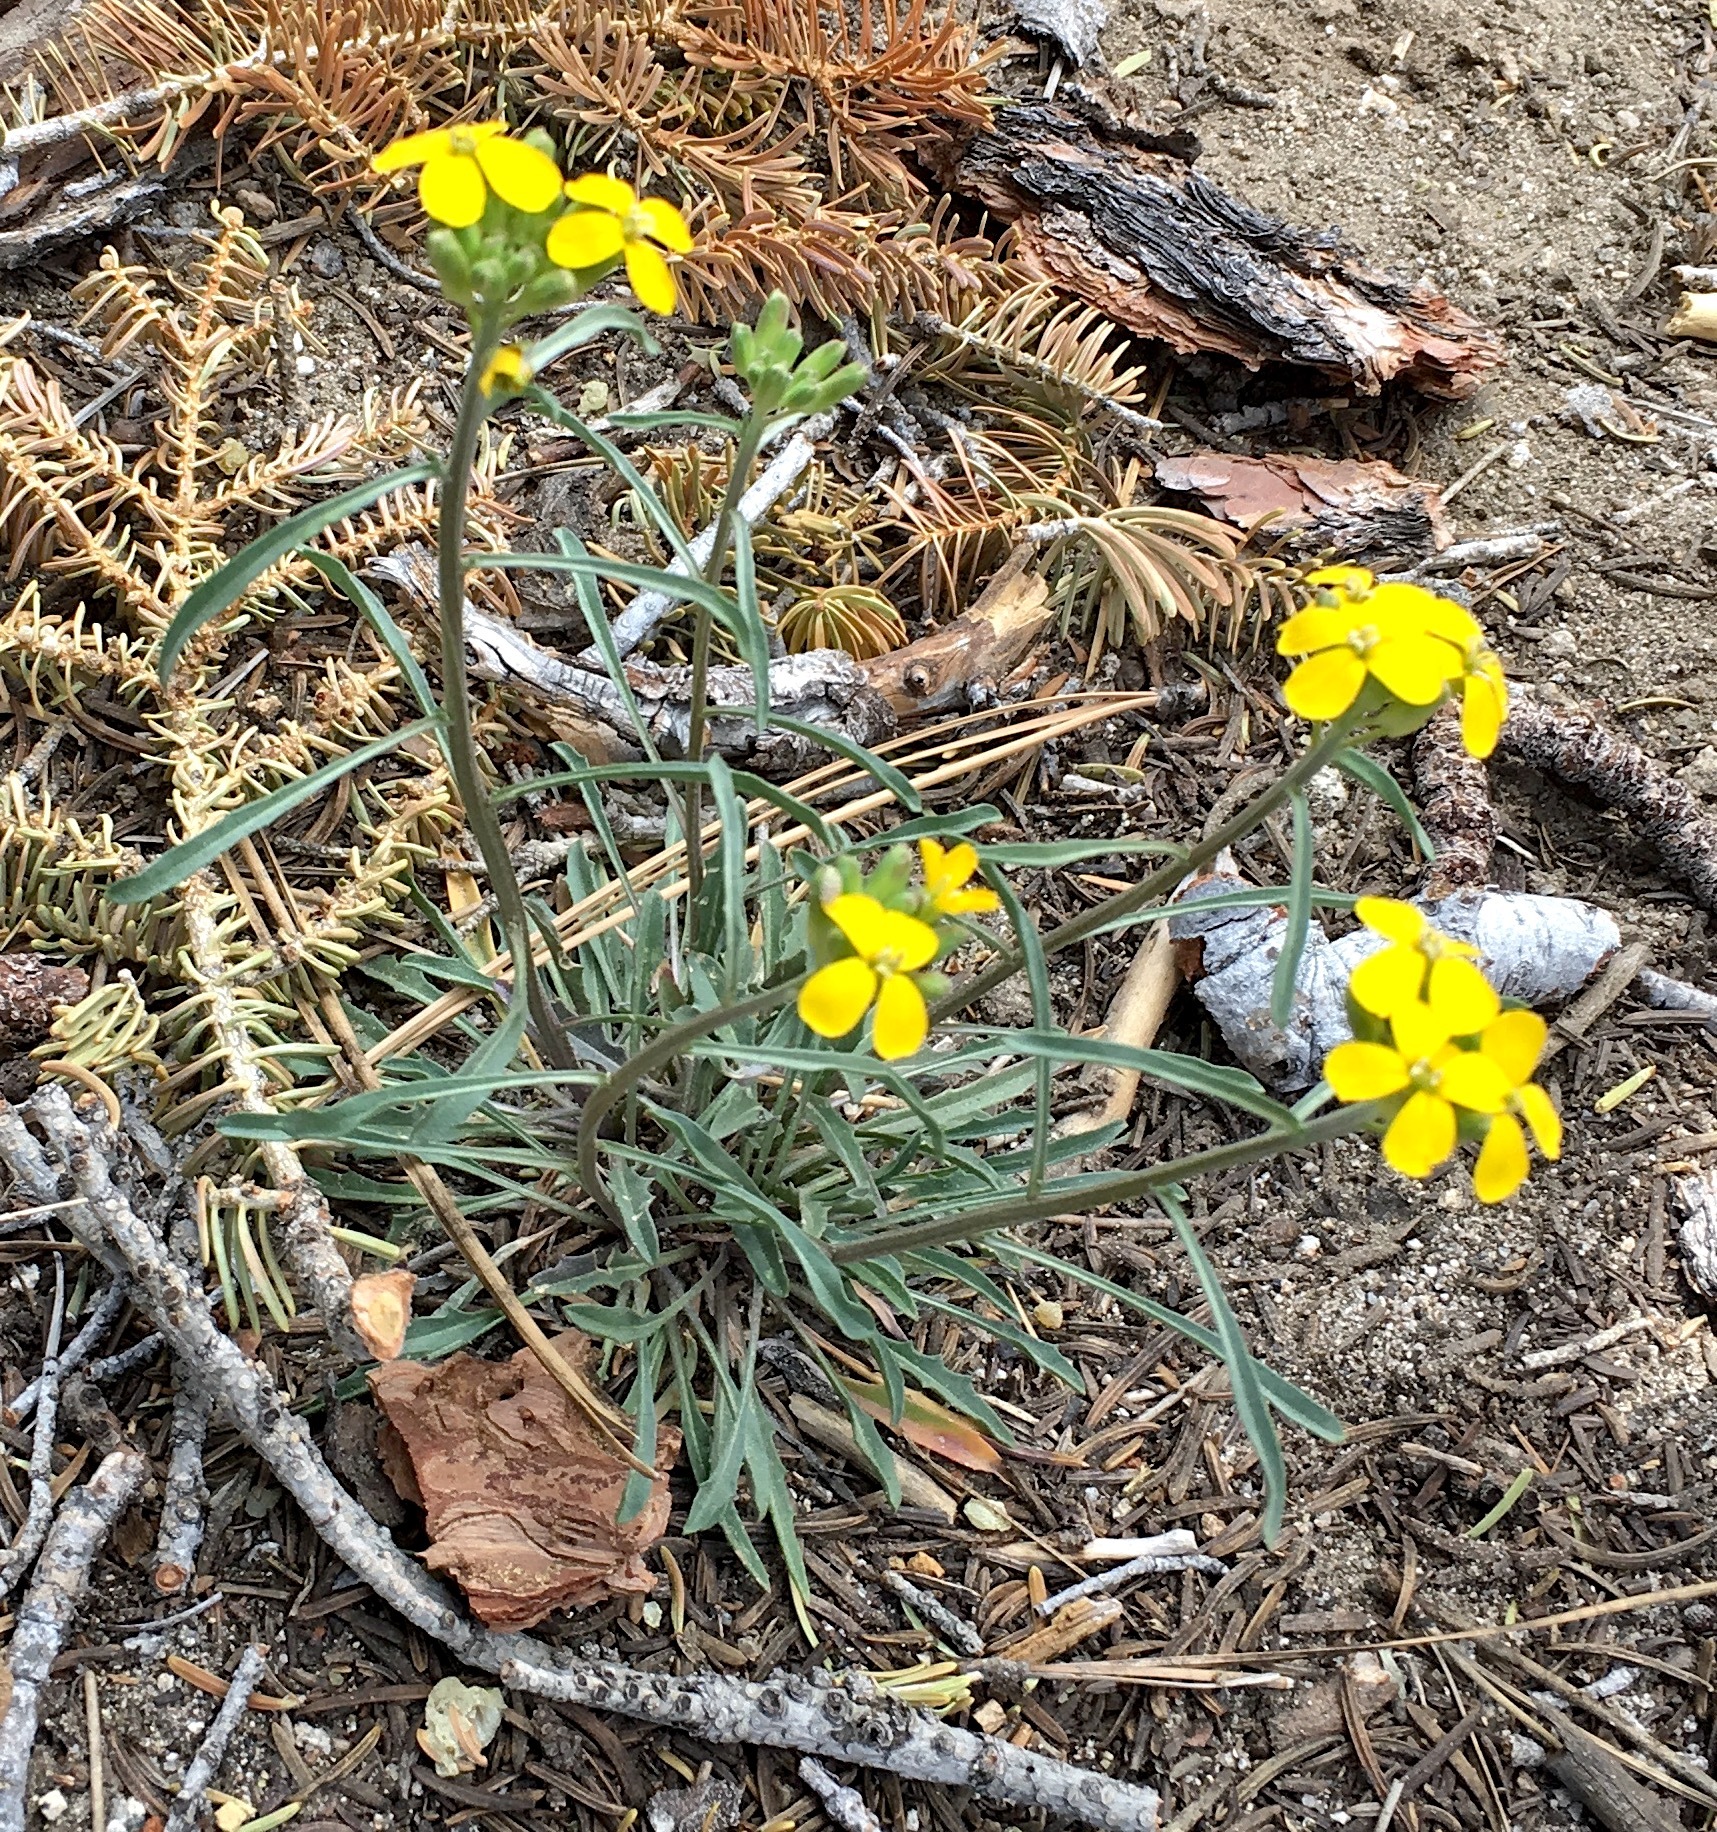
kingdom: Plantae
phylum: Tracheophyta
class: Magnoliopsida
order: Brassicales
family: Brassicaceae
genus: Erysimum
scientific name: Erysimum capitatum
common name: Western wallflower
